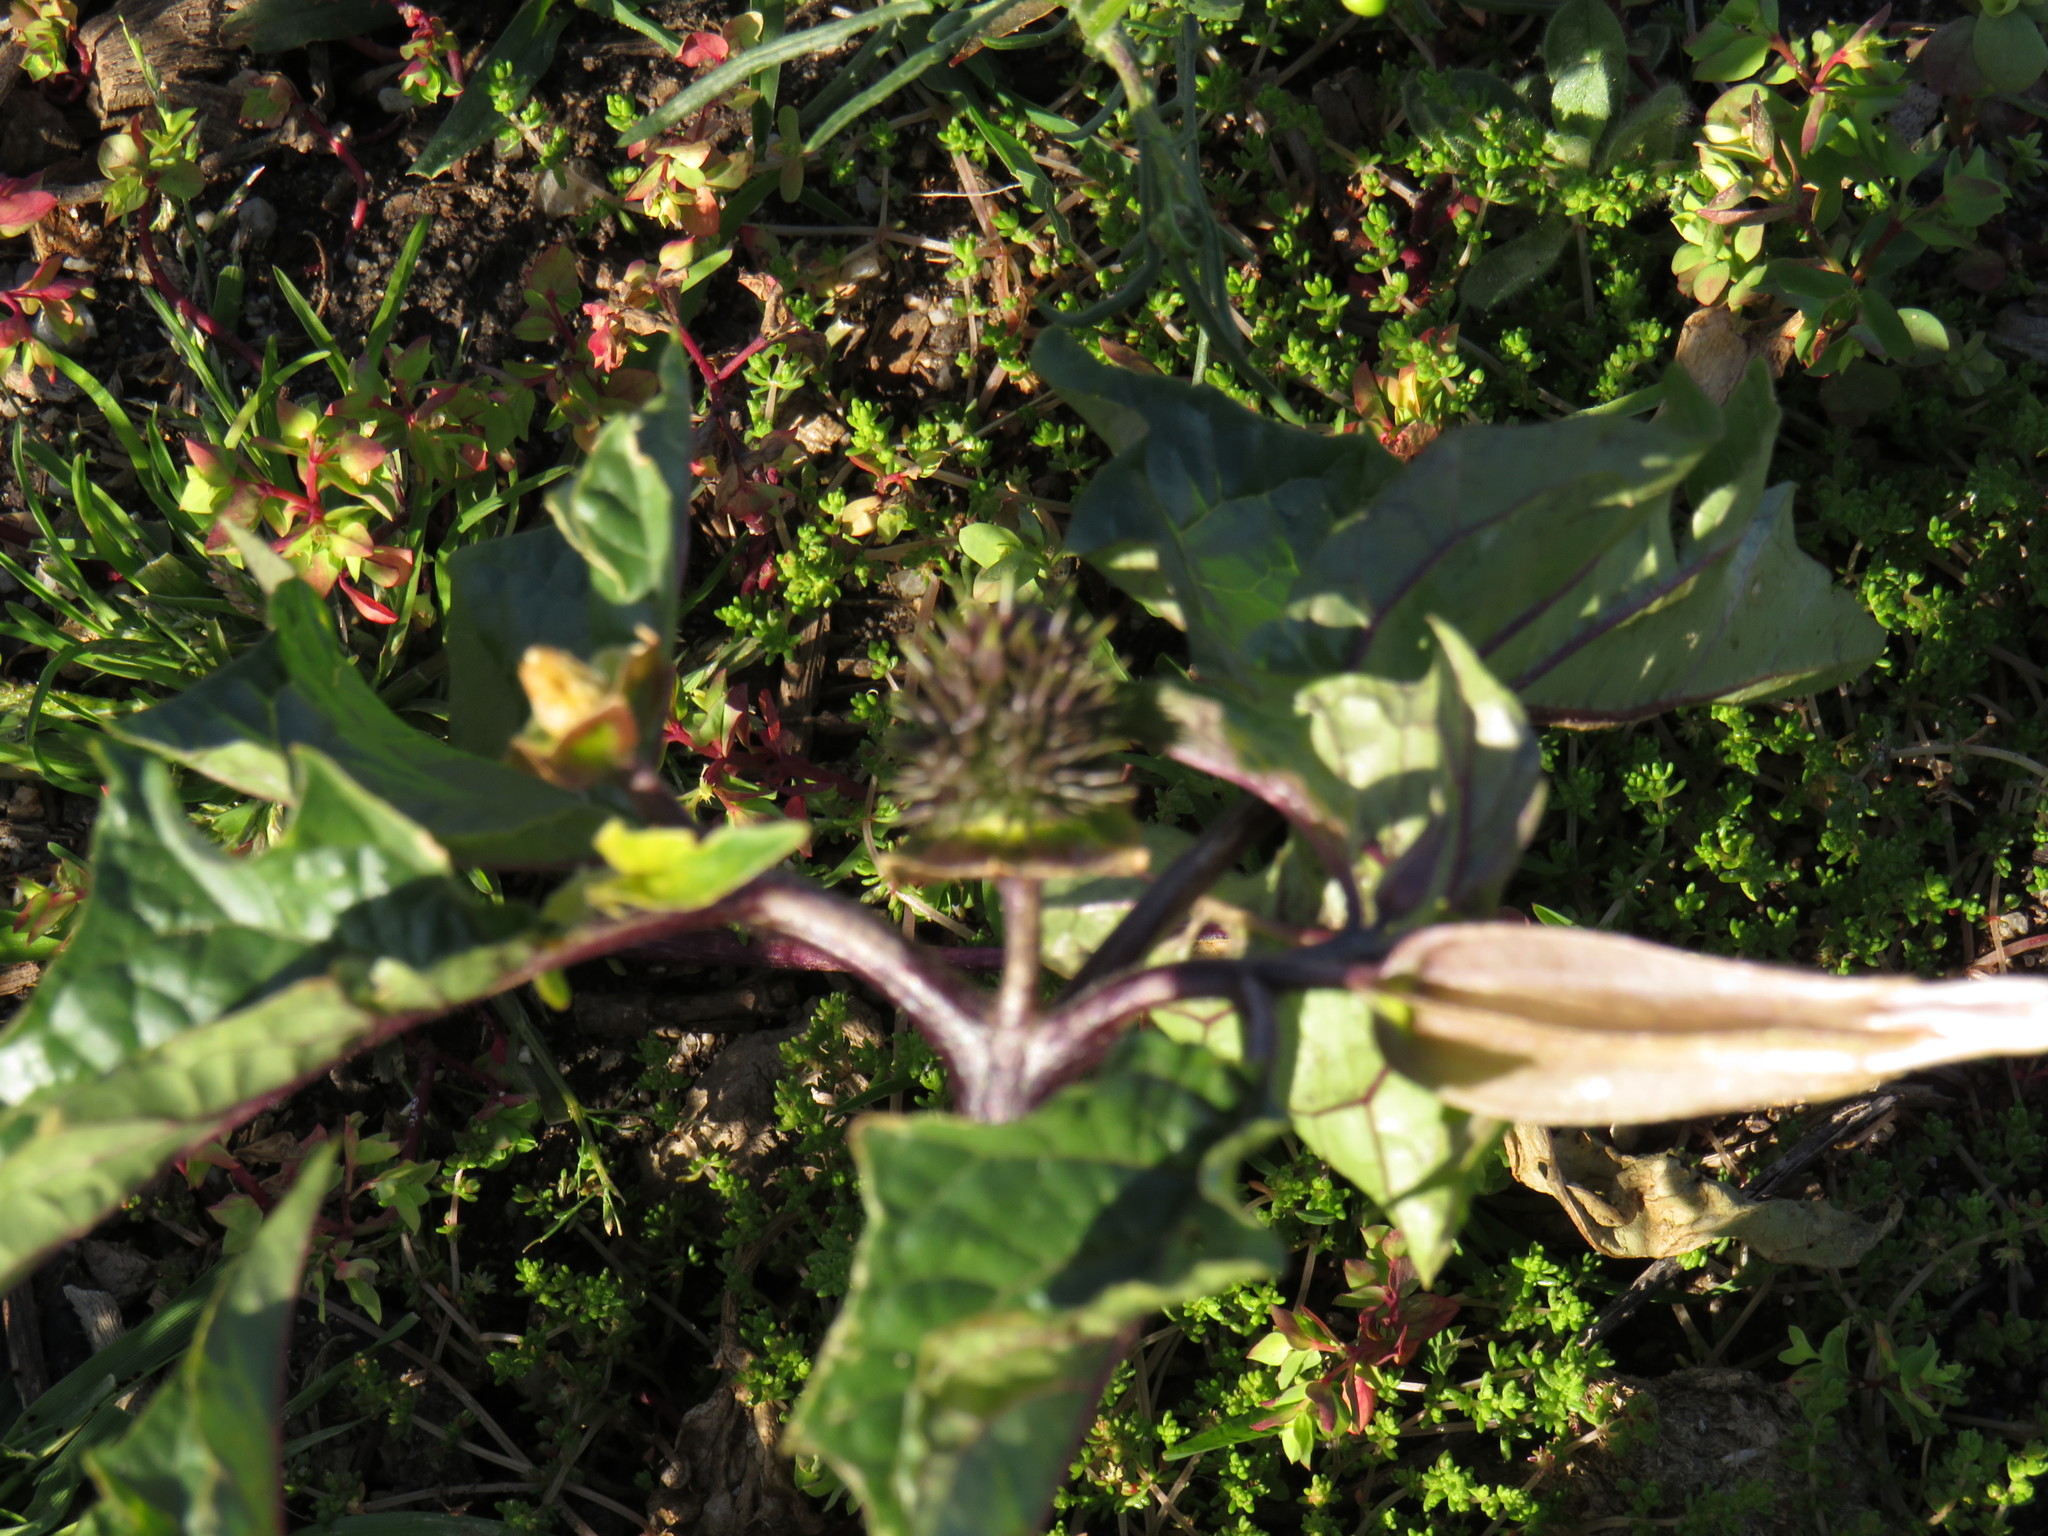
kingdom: Plantae
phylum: Tracheophyta
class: Magnoliopsida
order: Solanales
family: Solanaceae
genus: Datura
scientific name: Datura stramonium
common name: Thorn-apple
